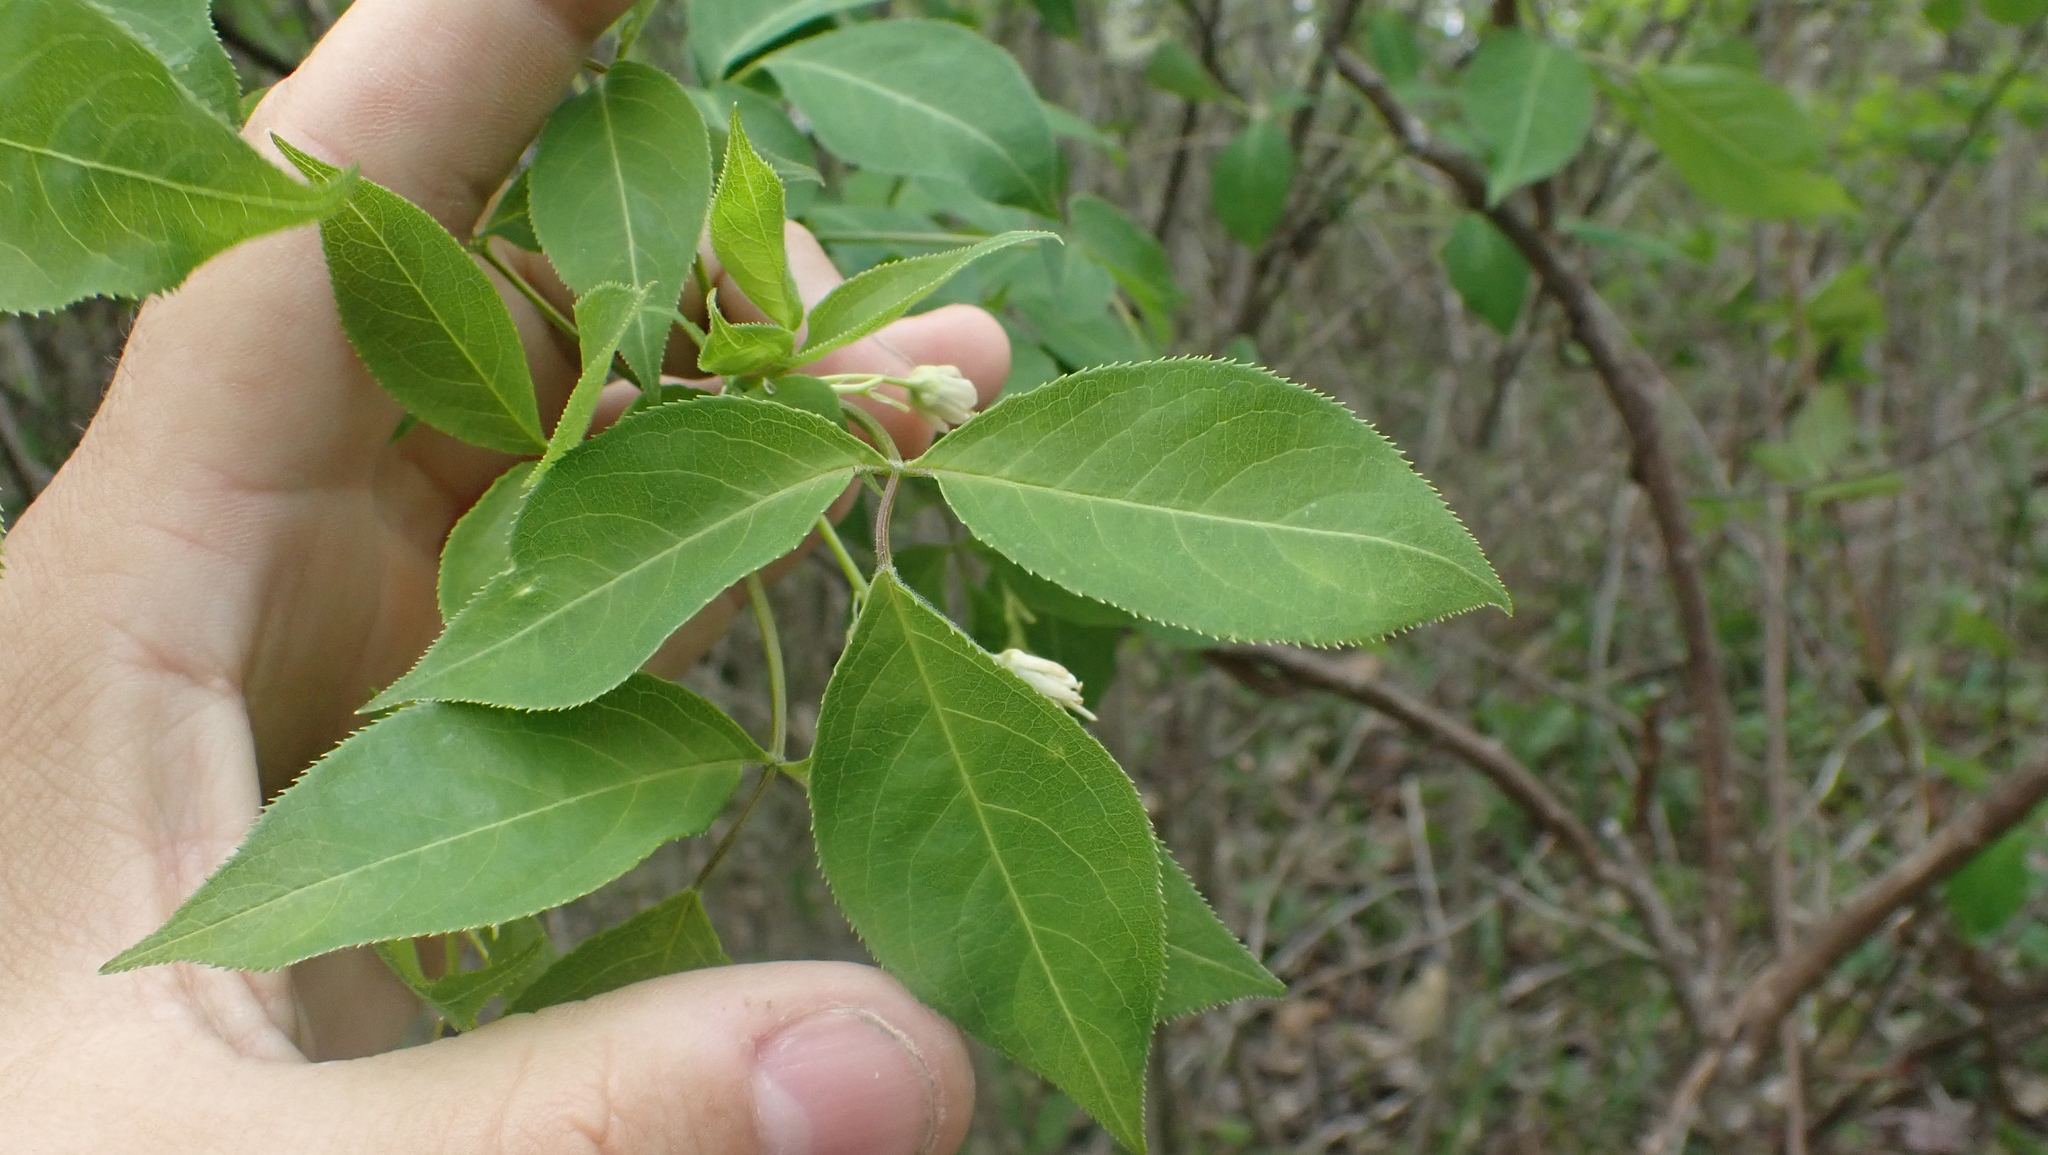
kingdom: Plantae
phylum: Tracheophyta
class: Magnoliopsida
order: Crossosomatales
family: Staphyleaceae
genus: Staphylea
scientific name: Staphylea trifolia
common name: American bladdernut
